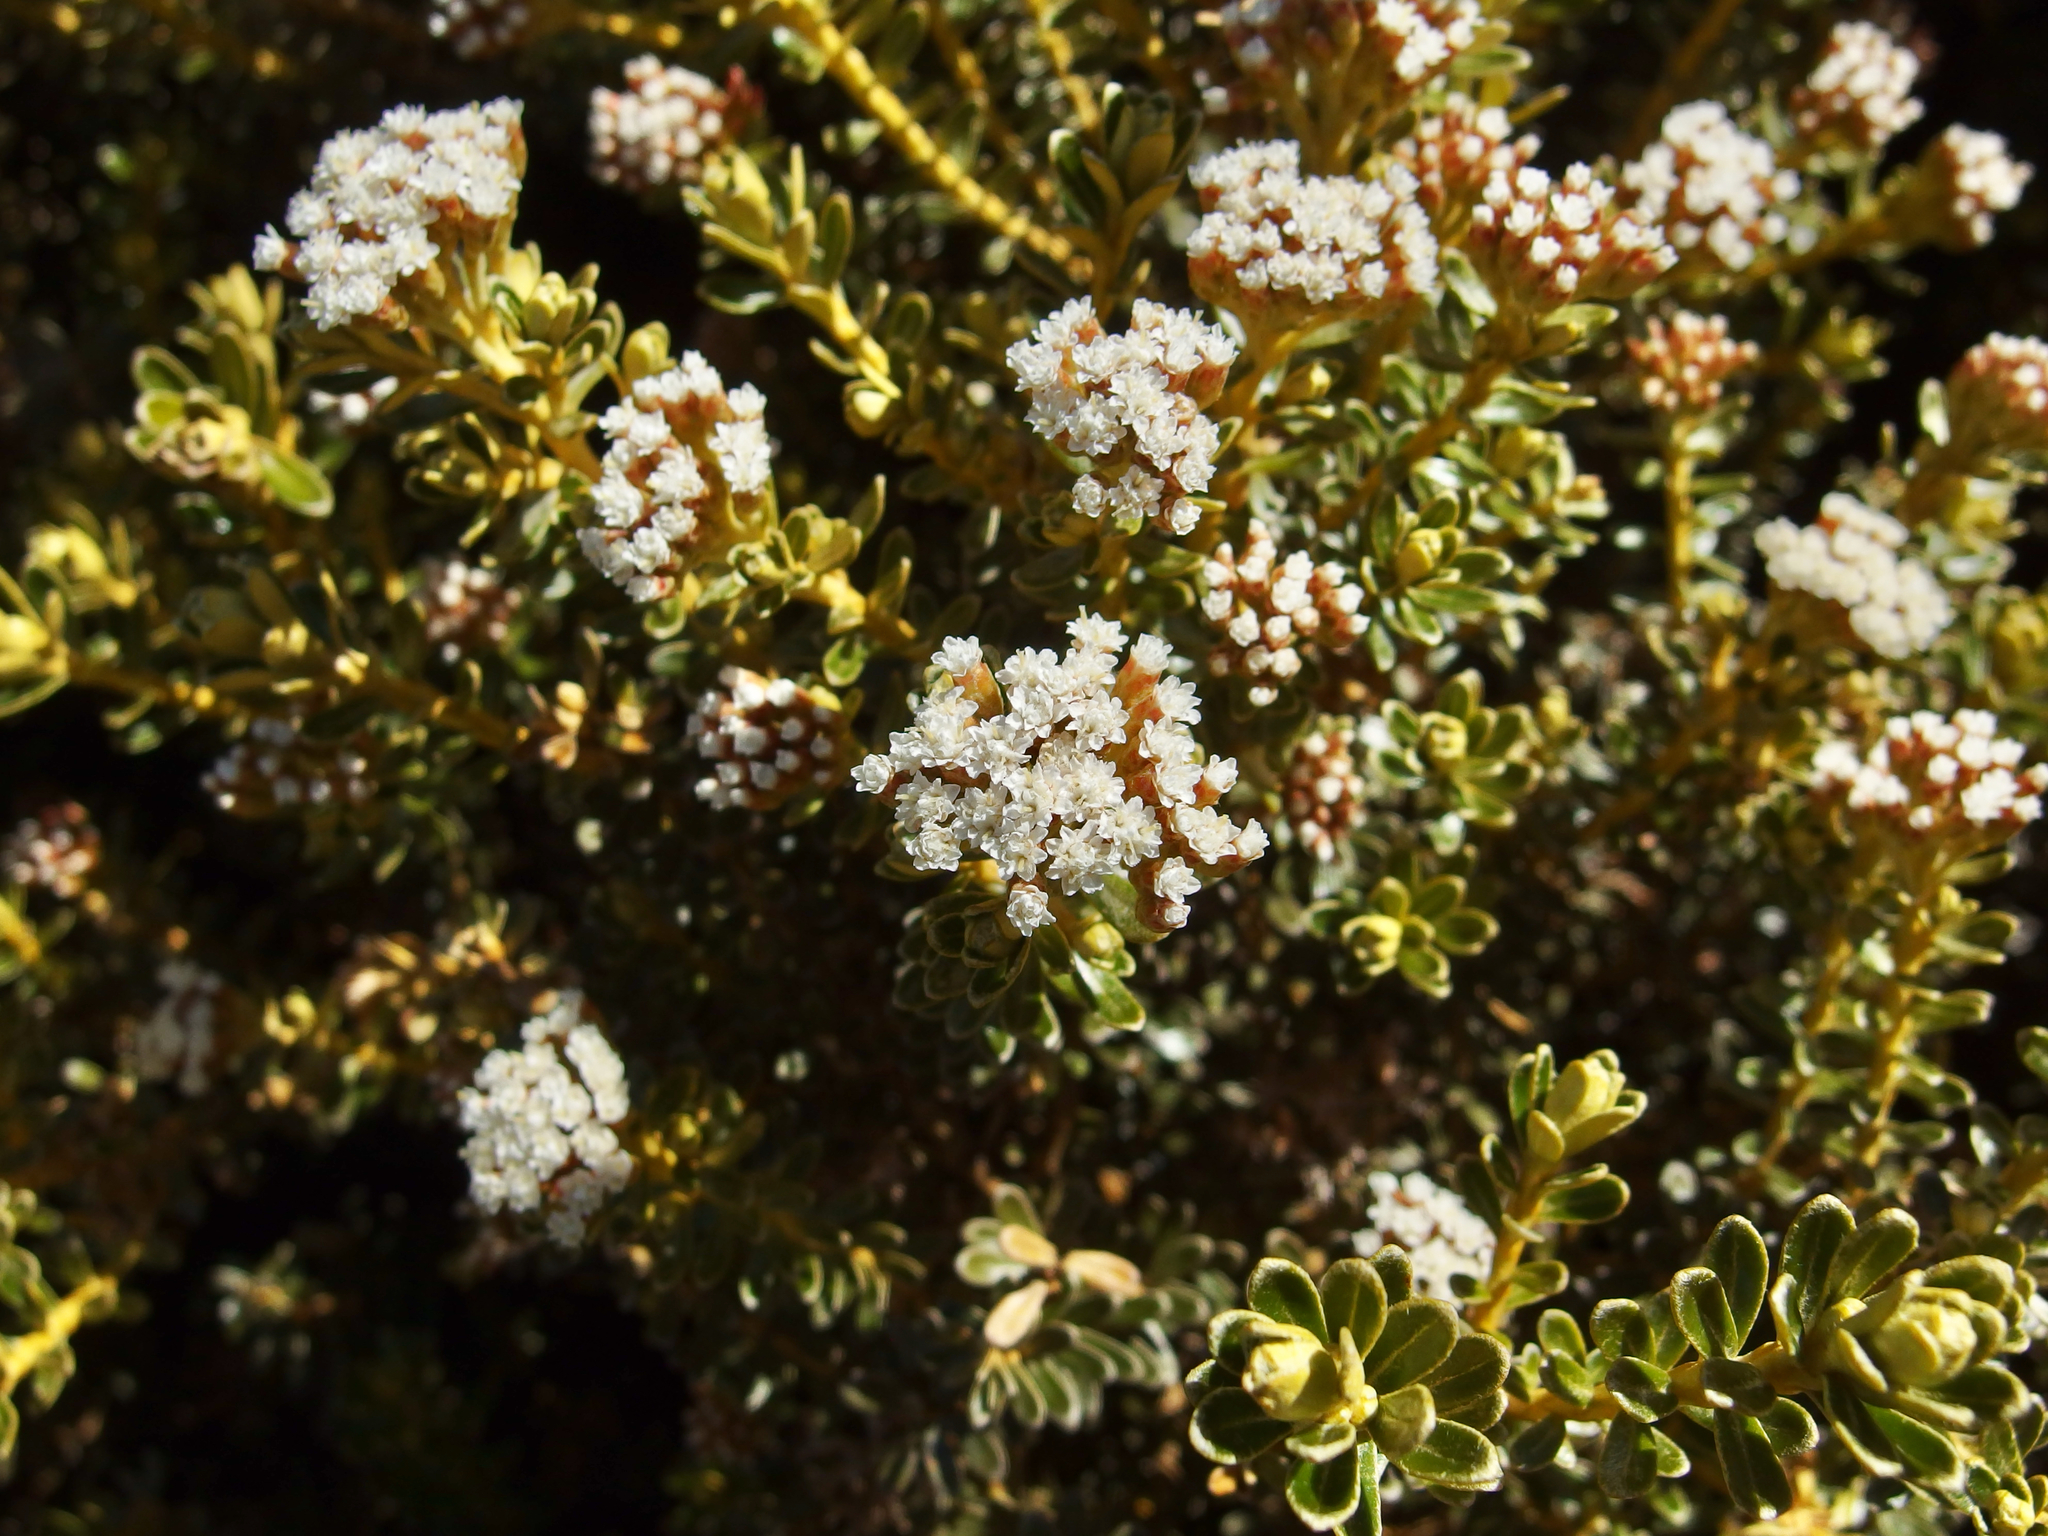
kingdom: Plantae
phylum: Tracheophyta
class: Magnoliopsida
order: Asterales
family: Asteraceae
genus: Ozothamnus
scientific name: Ozothamnus leptophyllus
